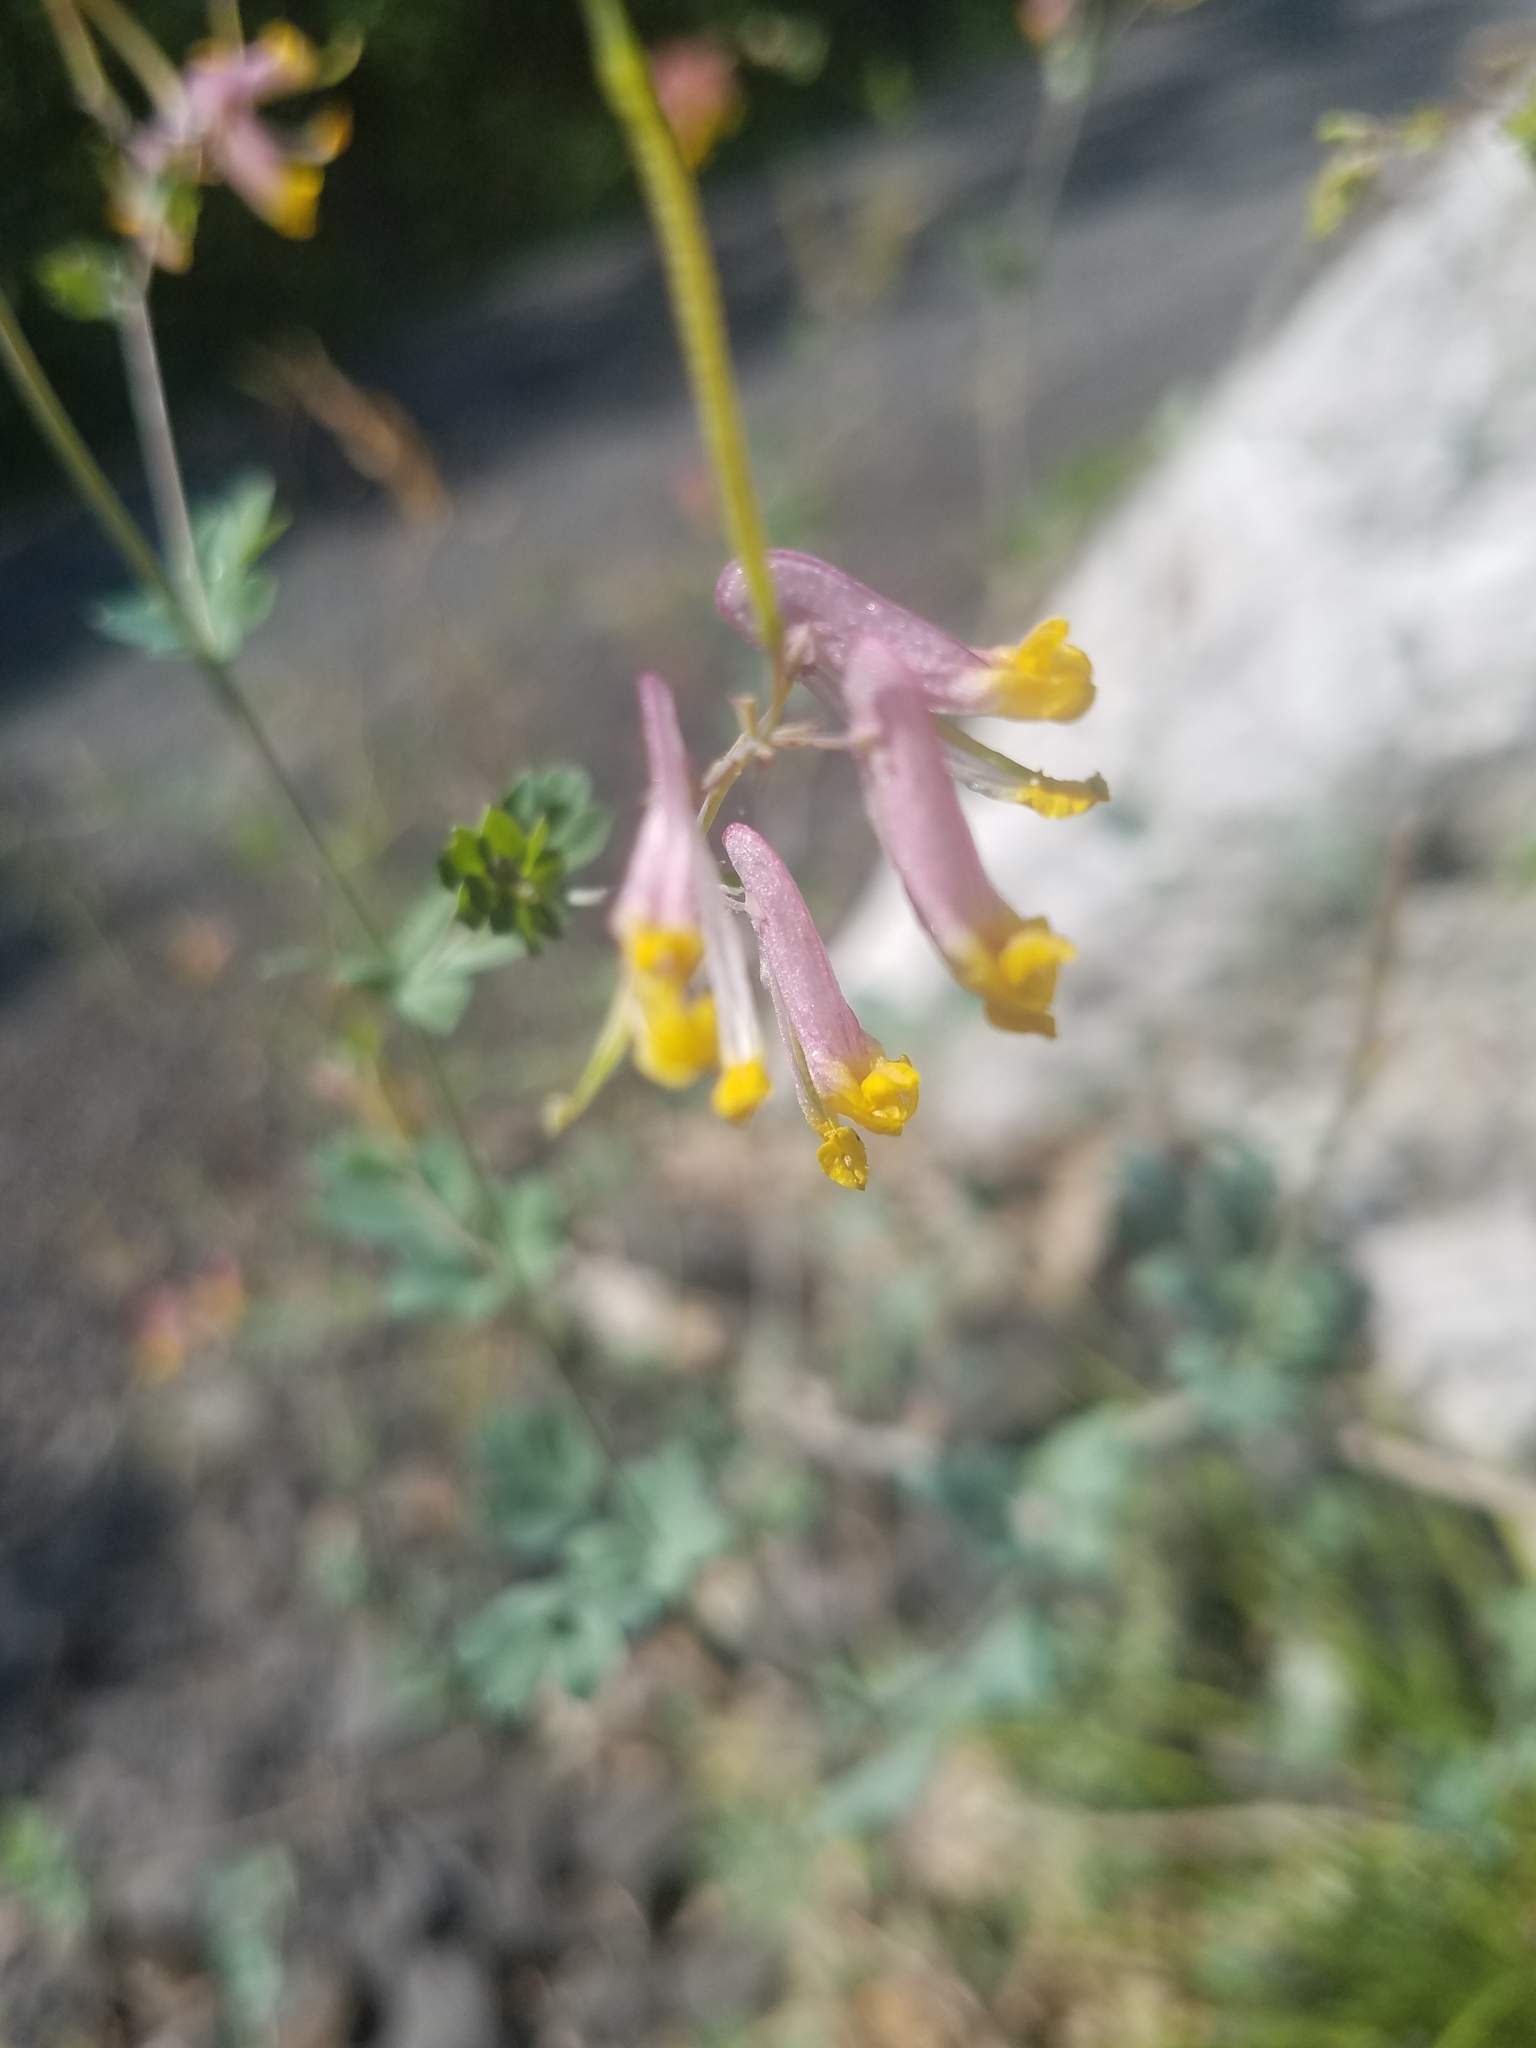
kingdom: Plantae
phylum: Tracheophyta
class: Magnoliopsida
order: Ranunculales
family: Papaveraceae
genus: Capnoides
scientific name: Capnoides sempervirens
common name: Rock harlequin
